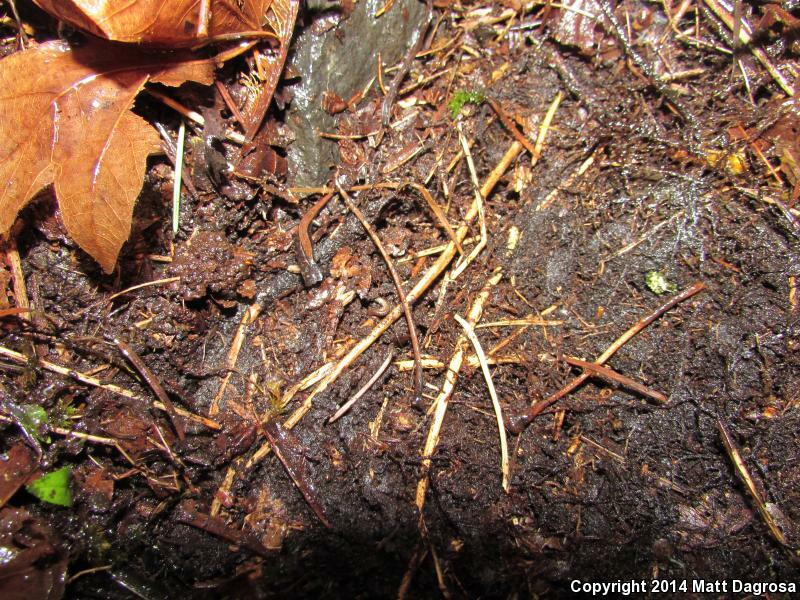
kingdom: Animalia
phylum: Chordata
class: Amphibia
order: Caudata
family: Plethodontidae
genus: Plethodon
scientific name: Plethodon vehiculum
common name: Western red-backed salamander
